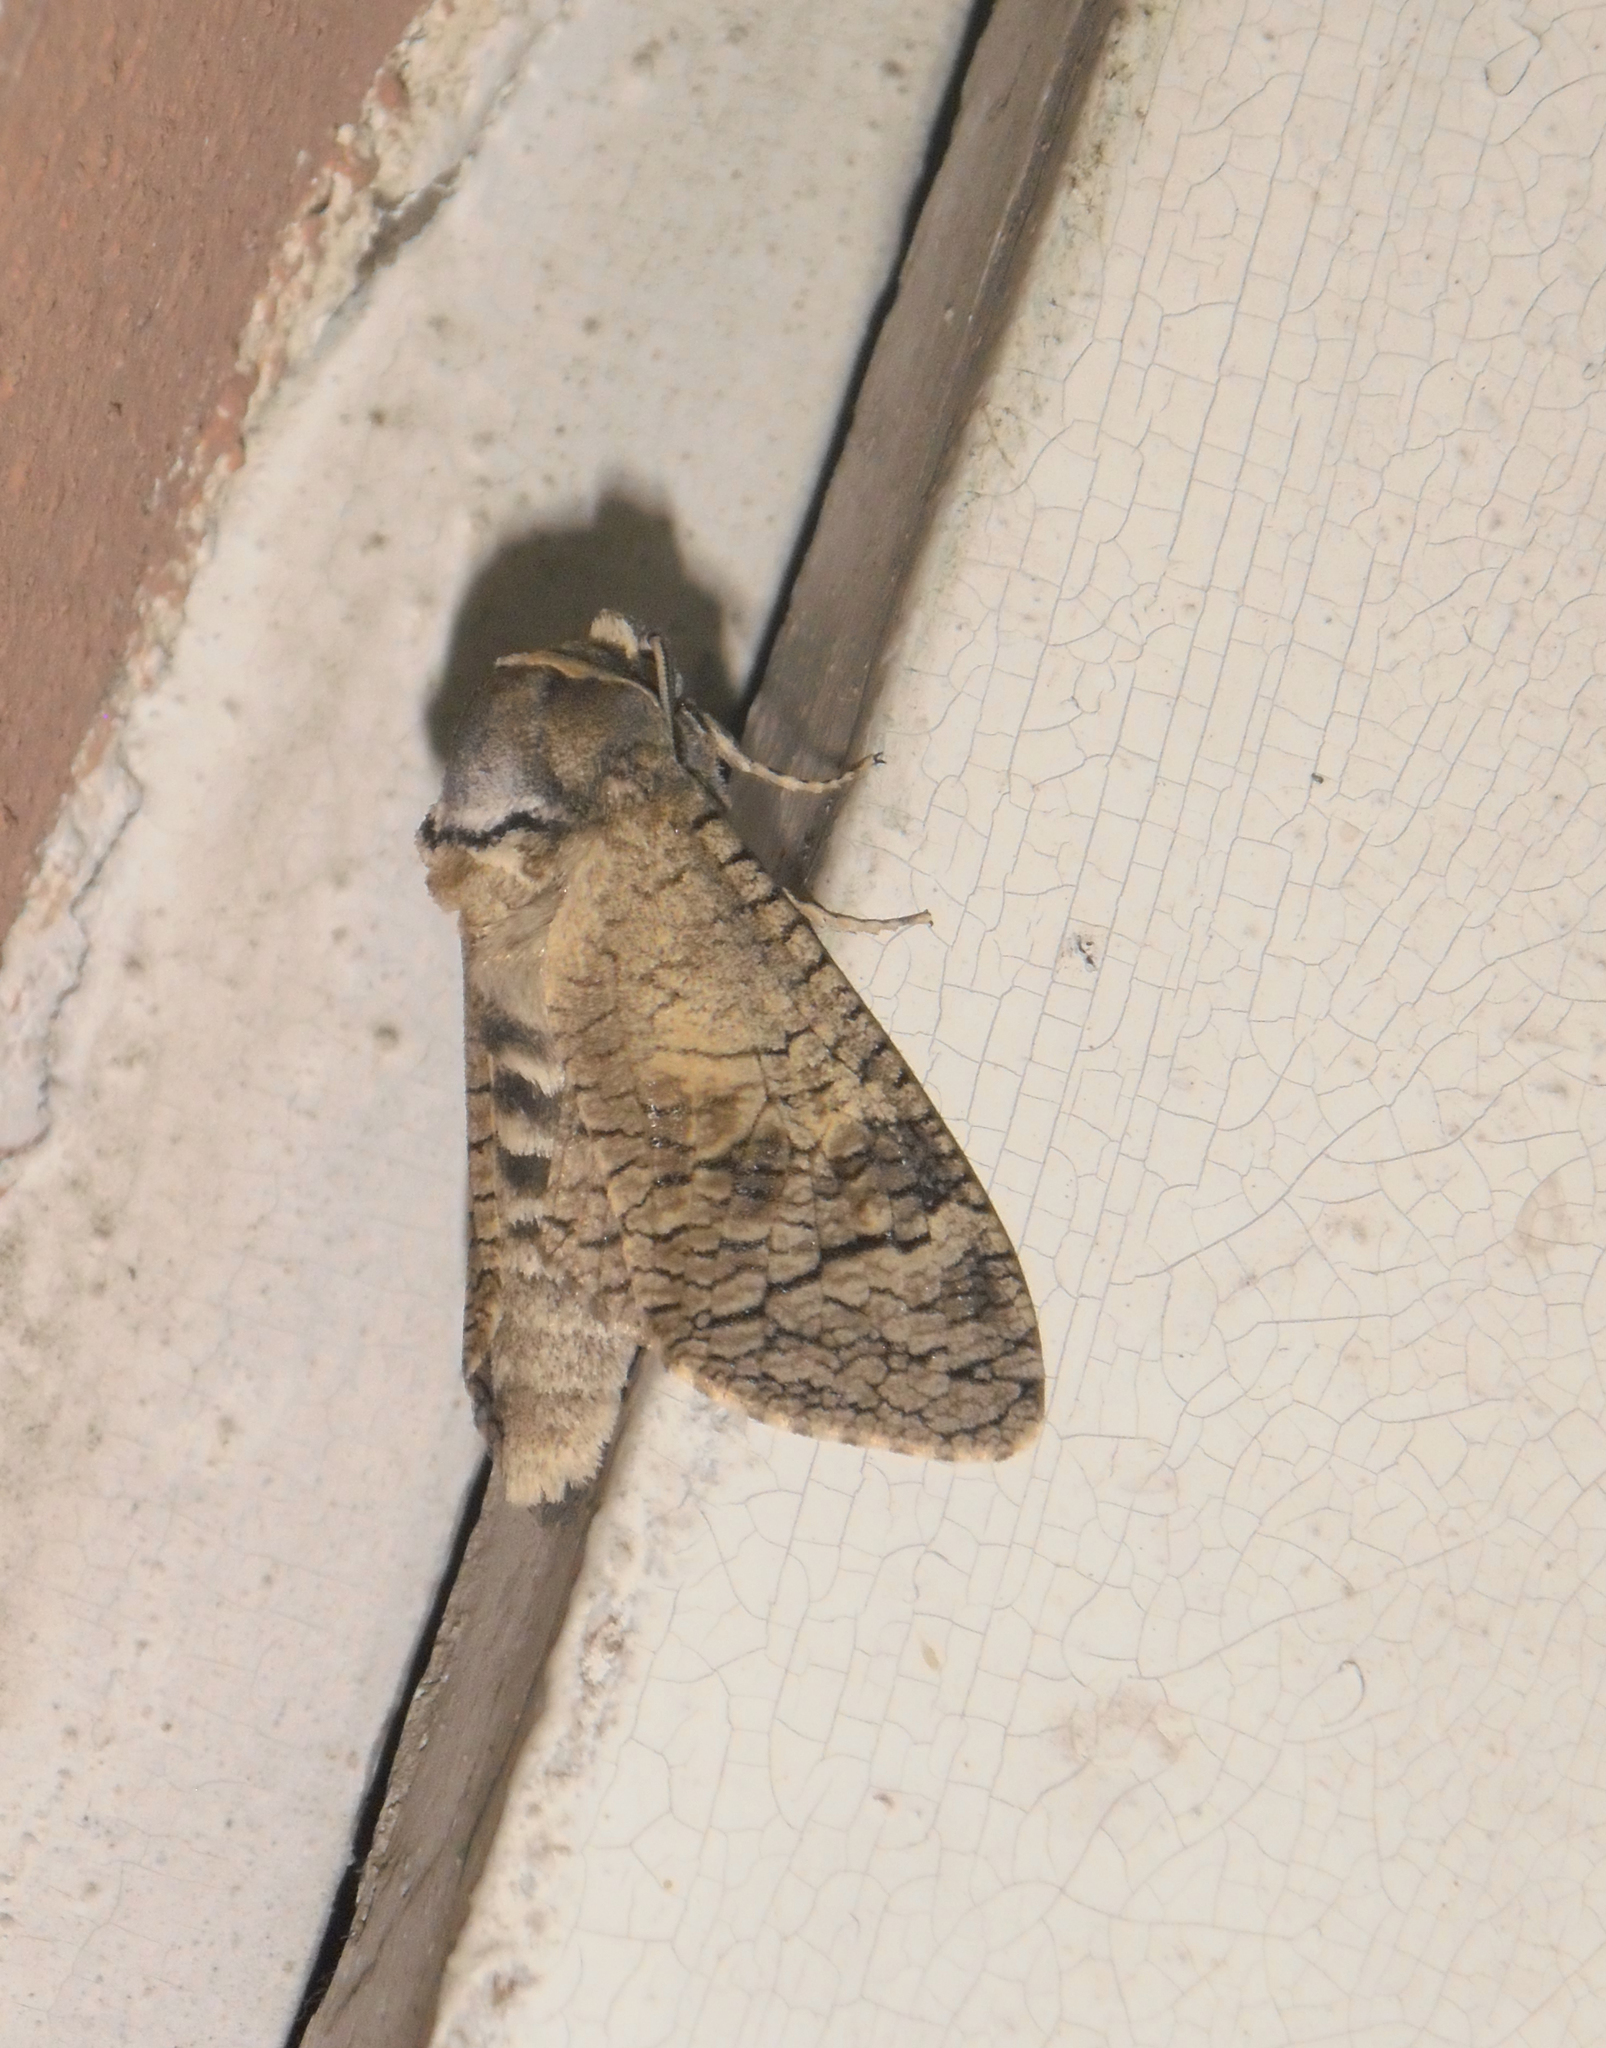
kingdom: Animalia
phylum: Arthropoda
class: Insecta
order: Lepidoptera
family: Cossidae
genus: Cossus
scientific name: Cossus cossus
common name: Goat moth
